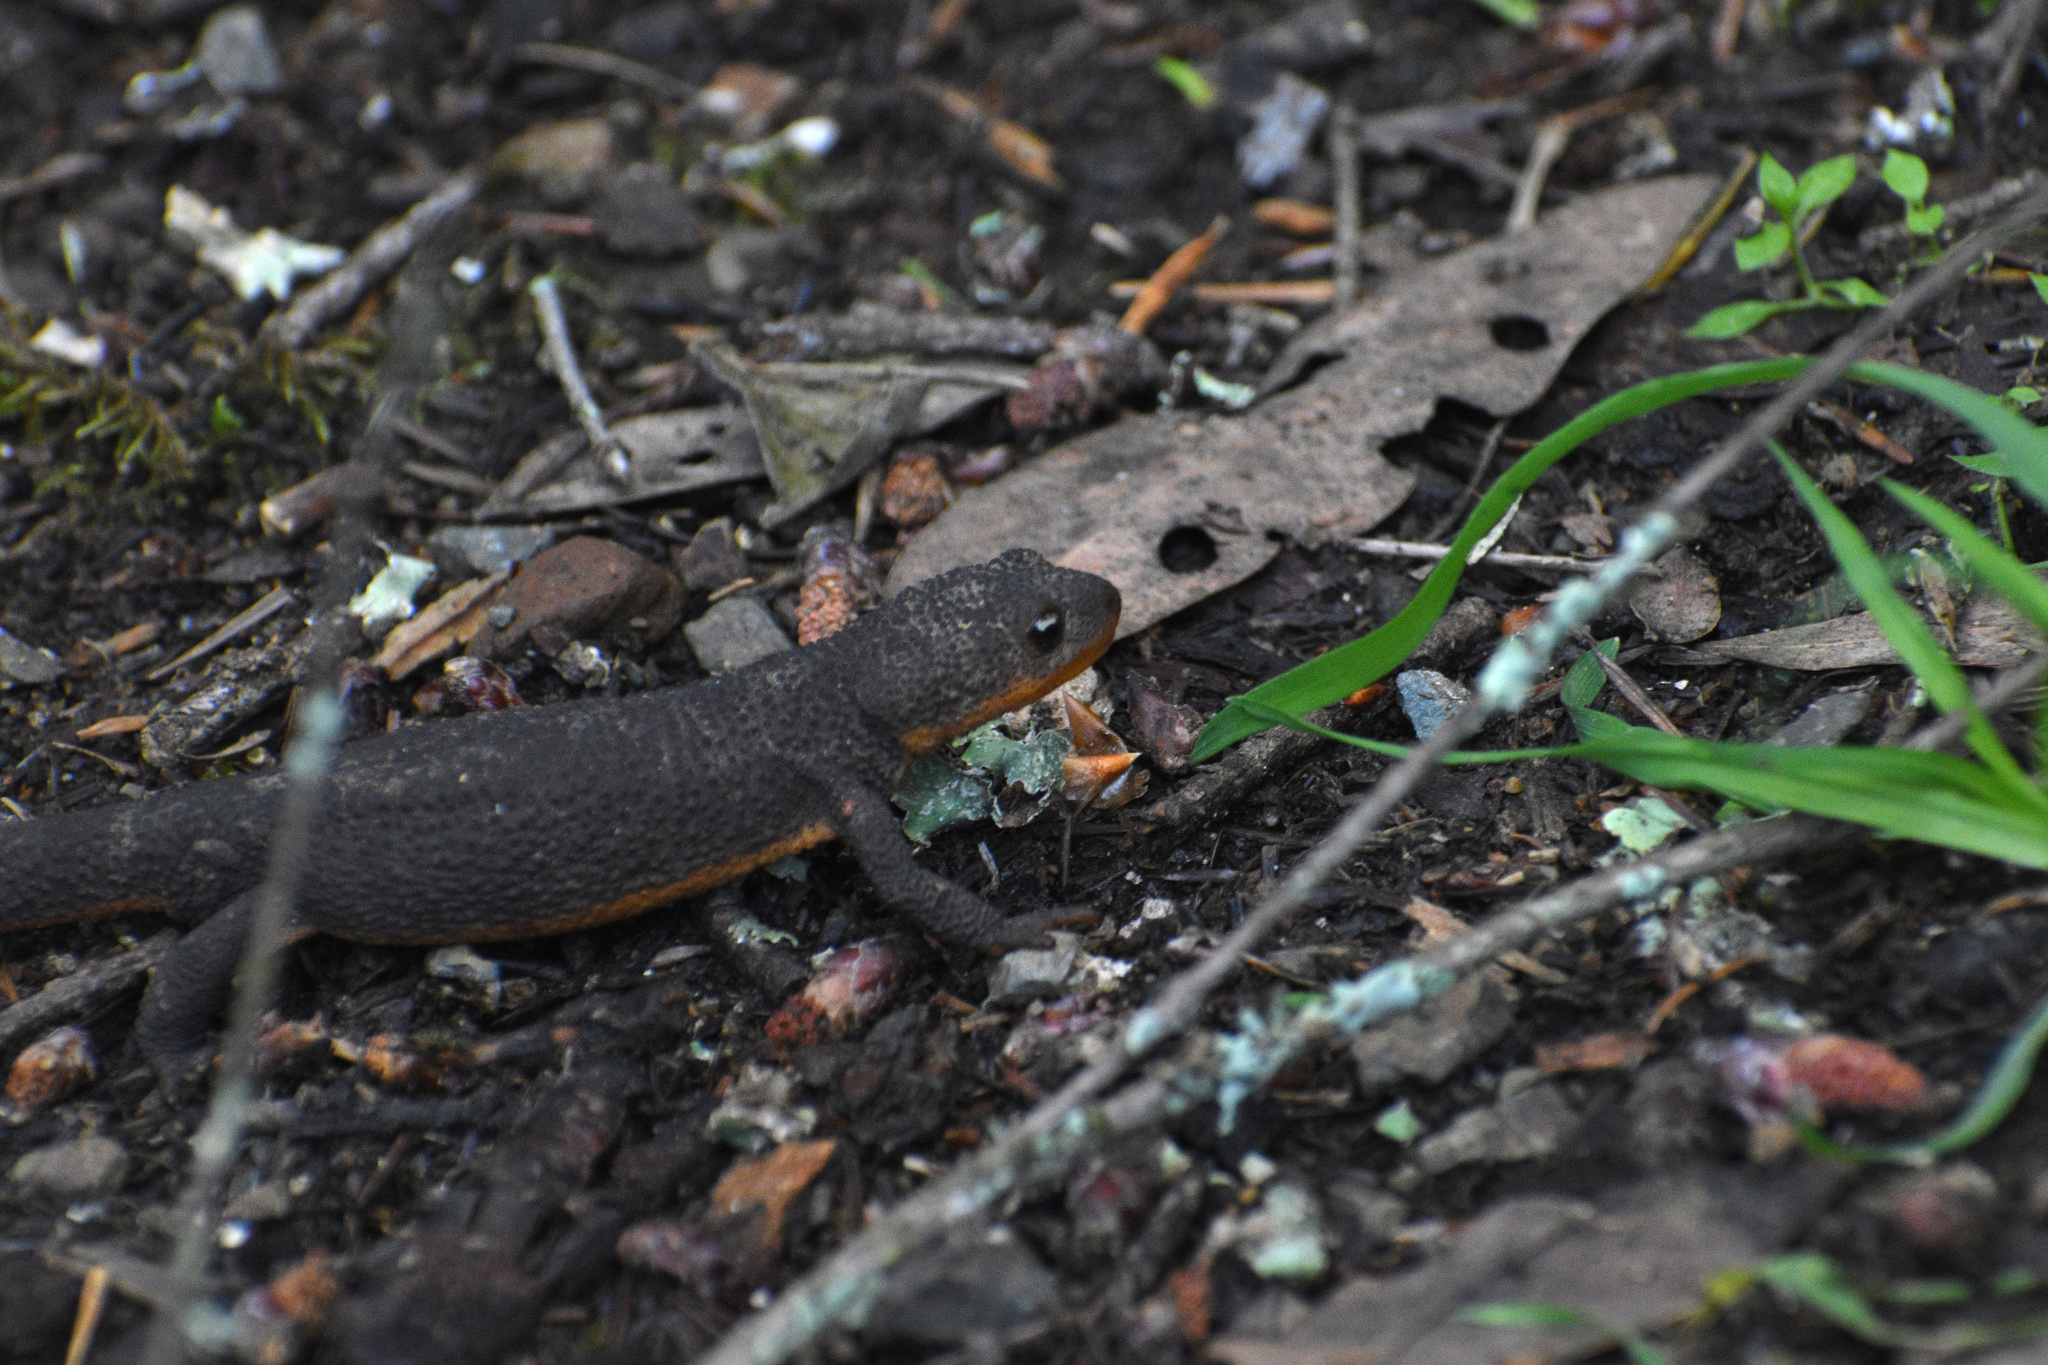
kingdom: Animalia
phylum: Chordata
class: Amphibia
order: Caudata
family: Salamandridae
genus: Taricha
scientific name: Taricha granulosa
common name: Roughskin newt
